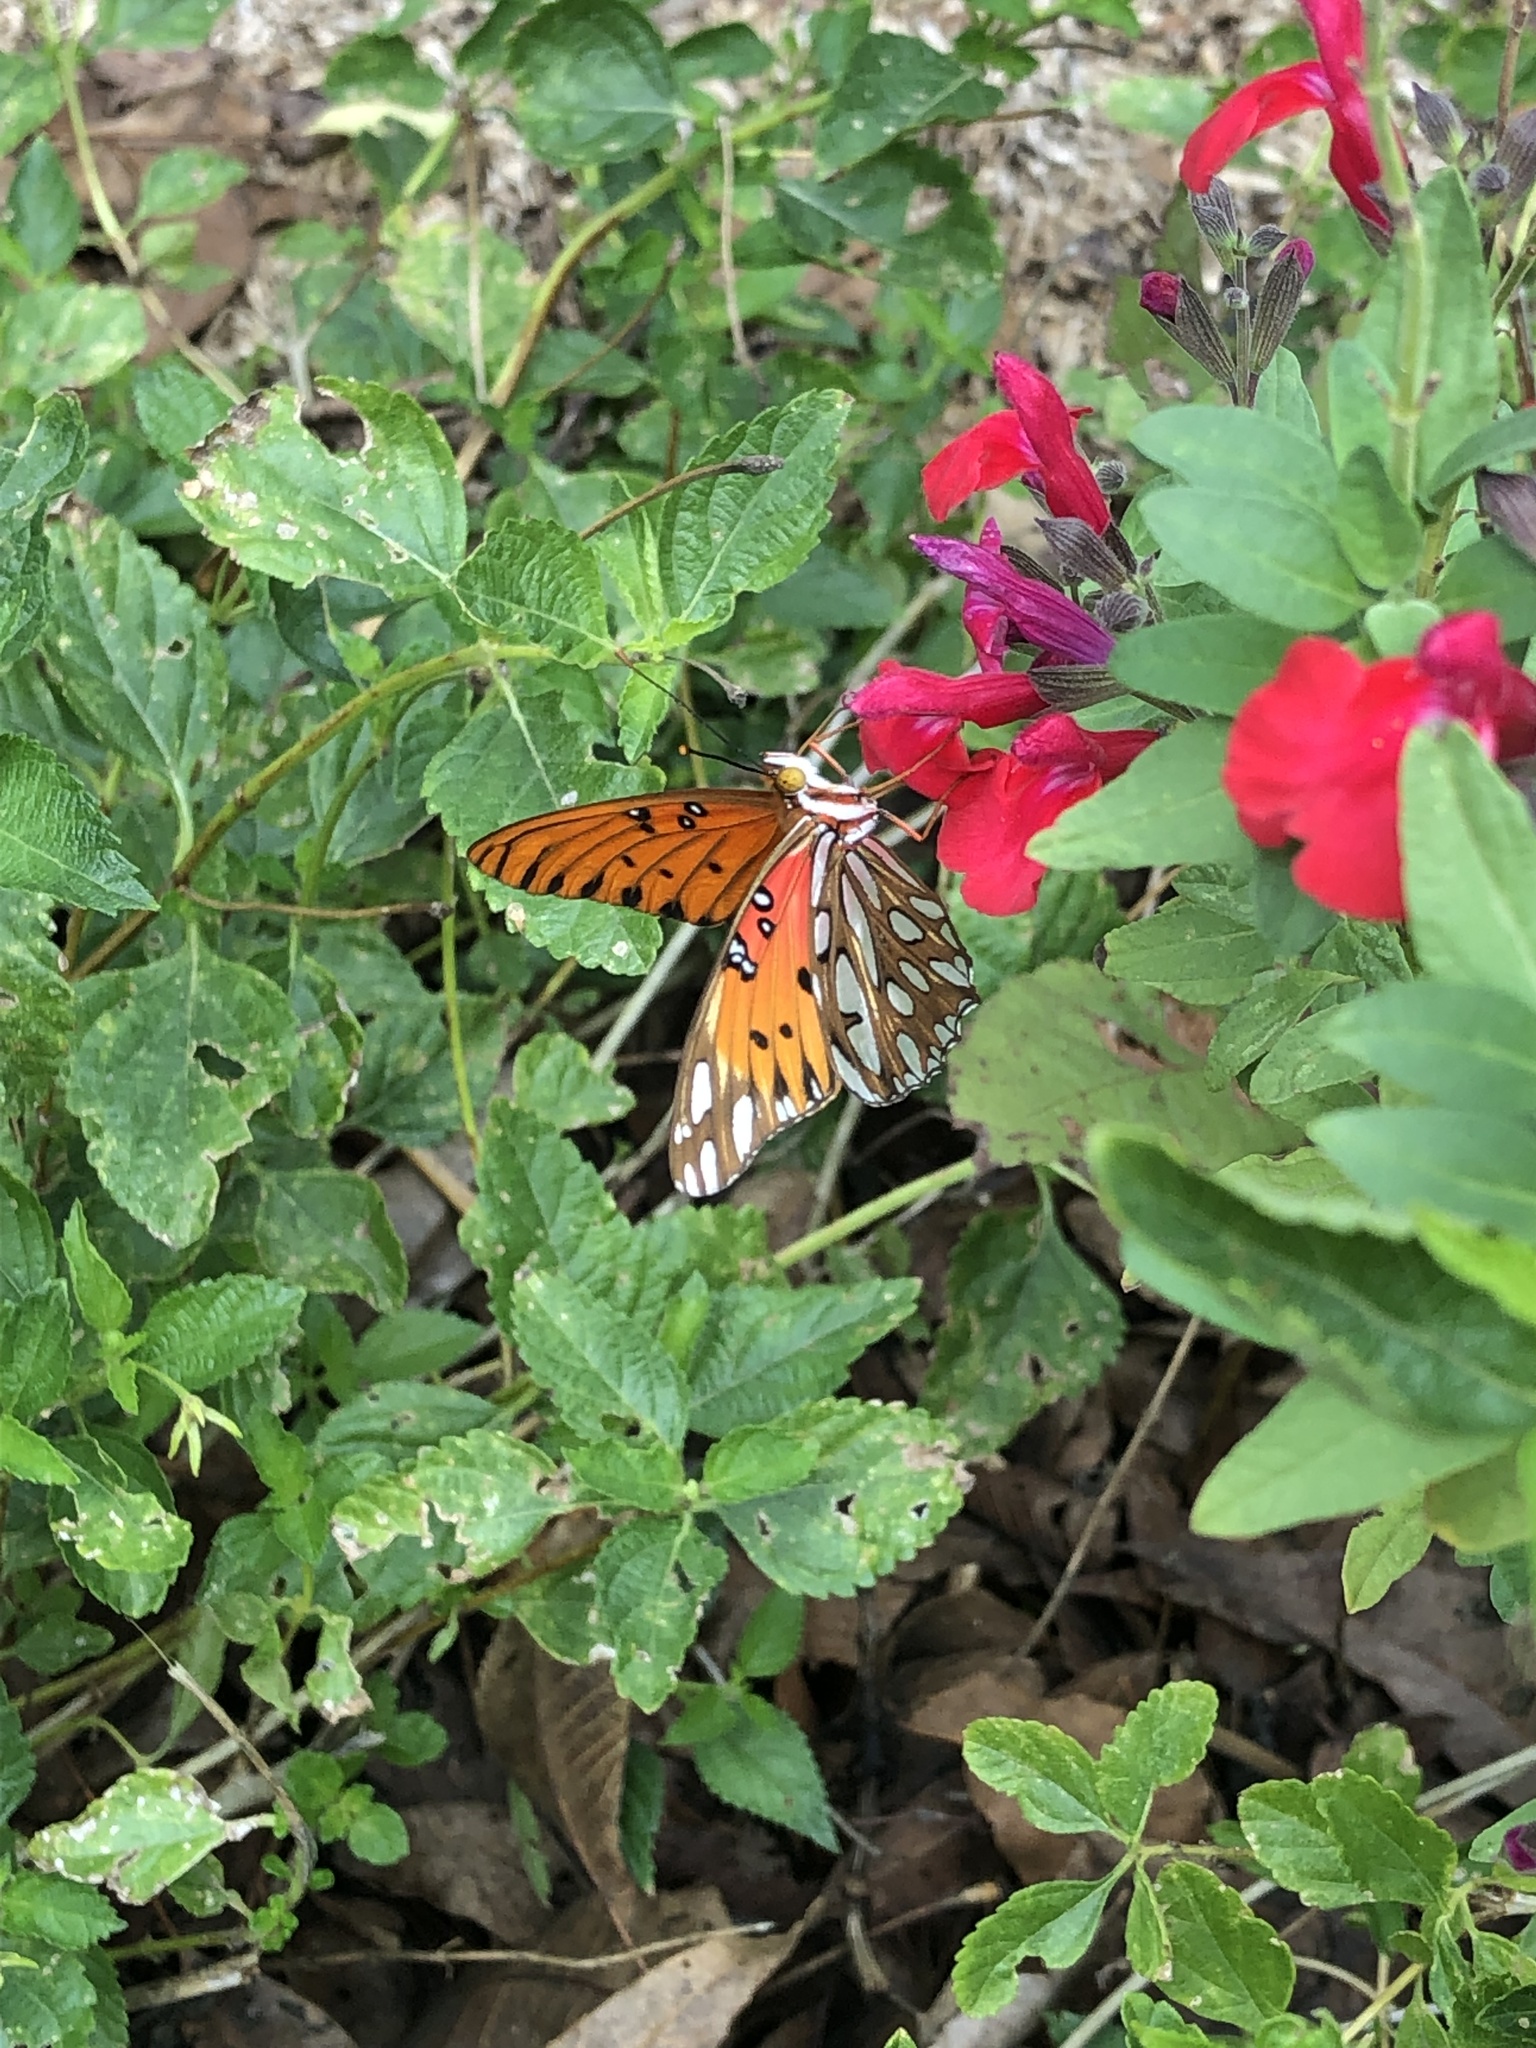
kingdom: Animalia
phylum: Arthropoda
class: Insecta
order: Lepidoptera
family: Nymphalidae
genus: Dione
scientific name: Dione vanillae
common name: Gulf fritillary
